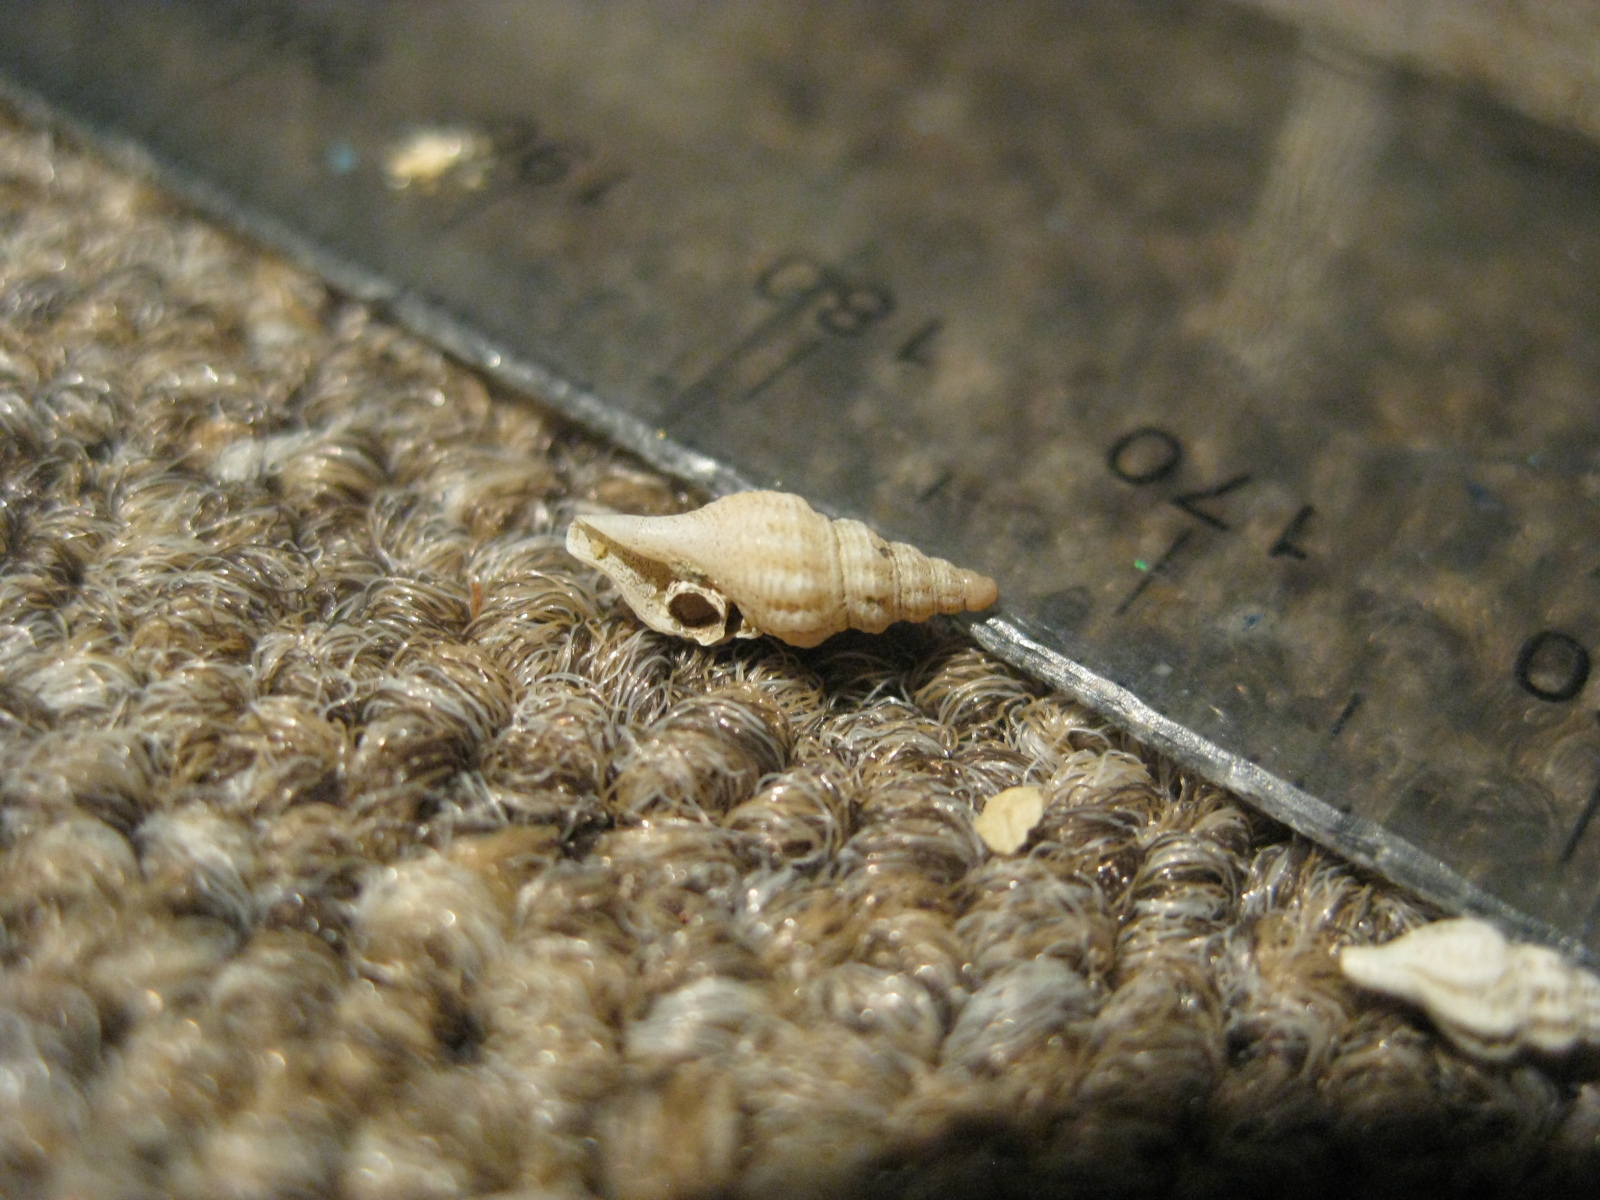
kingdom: Animalia
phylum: Mollusca
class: Gastropoda
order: Neogastropoda
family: Pseudomelatomidae
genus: Antimelatoma
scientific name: Antimelatoma buchanani
